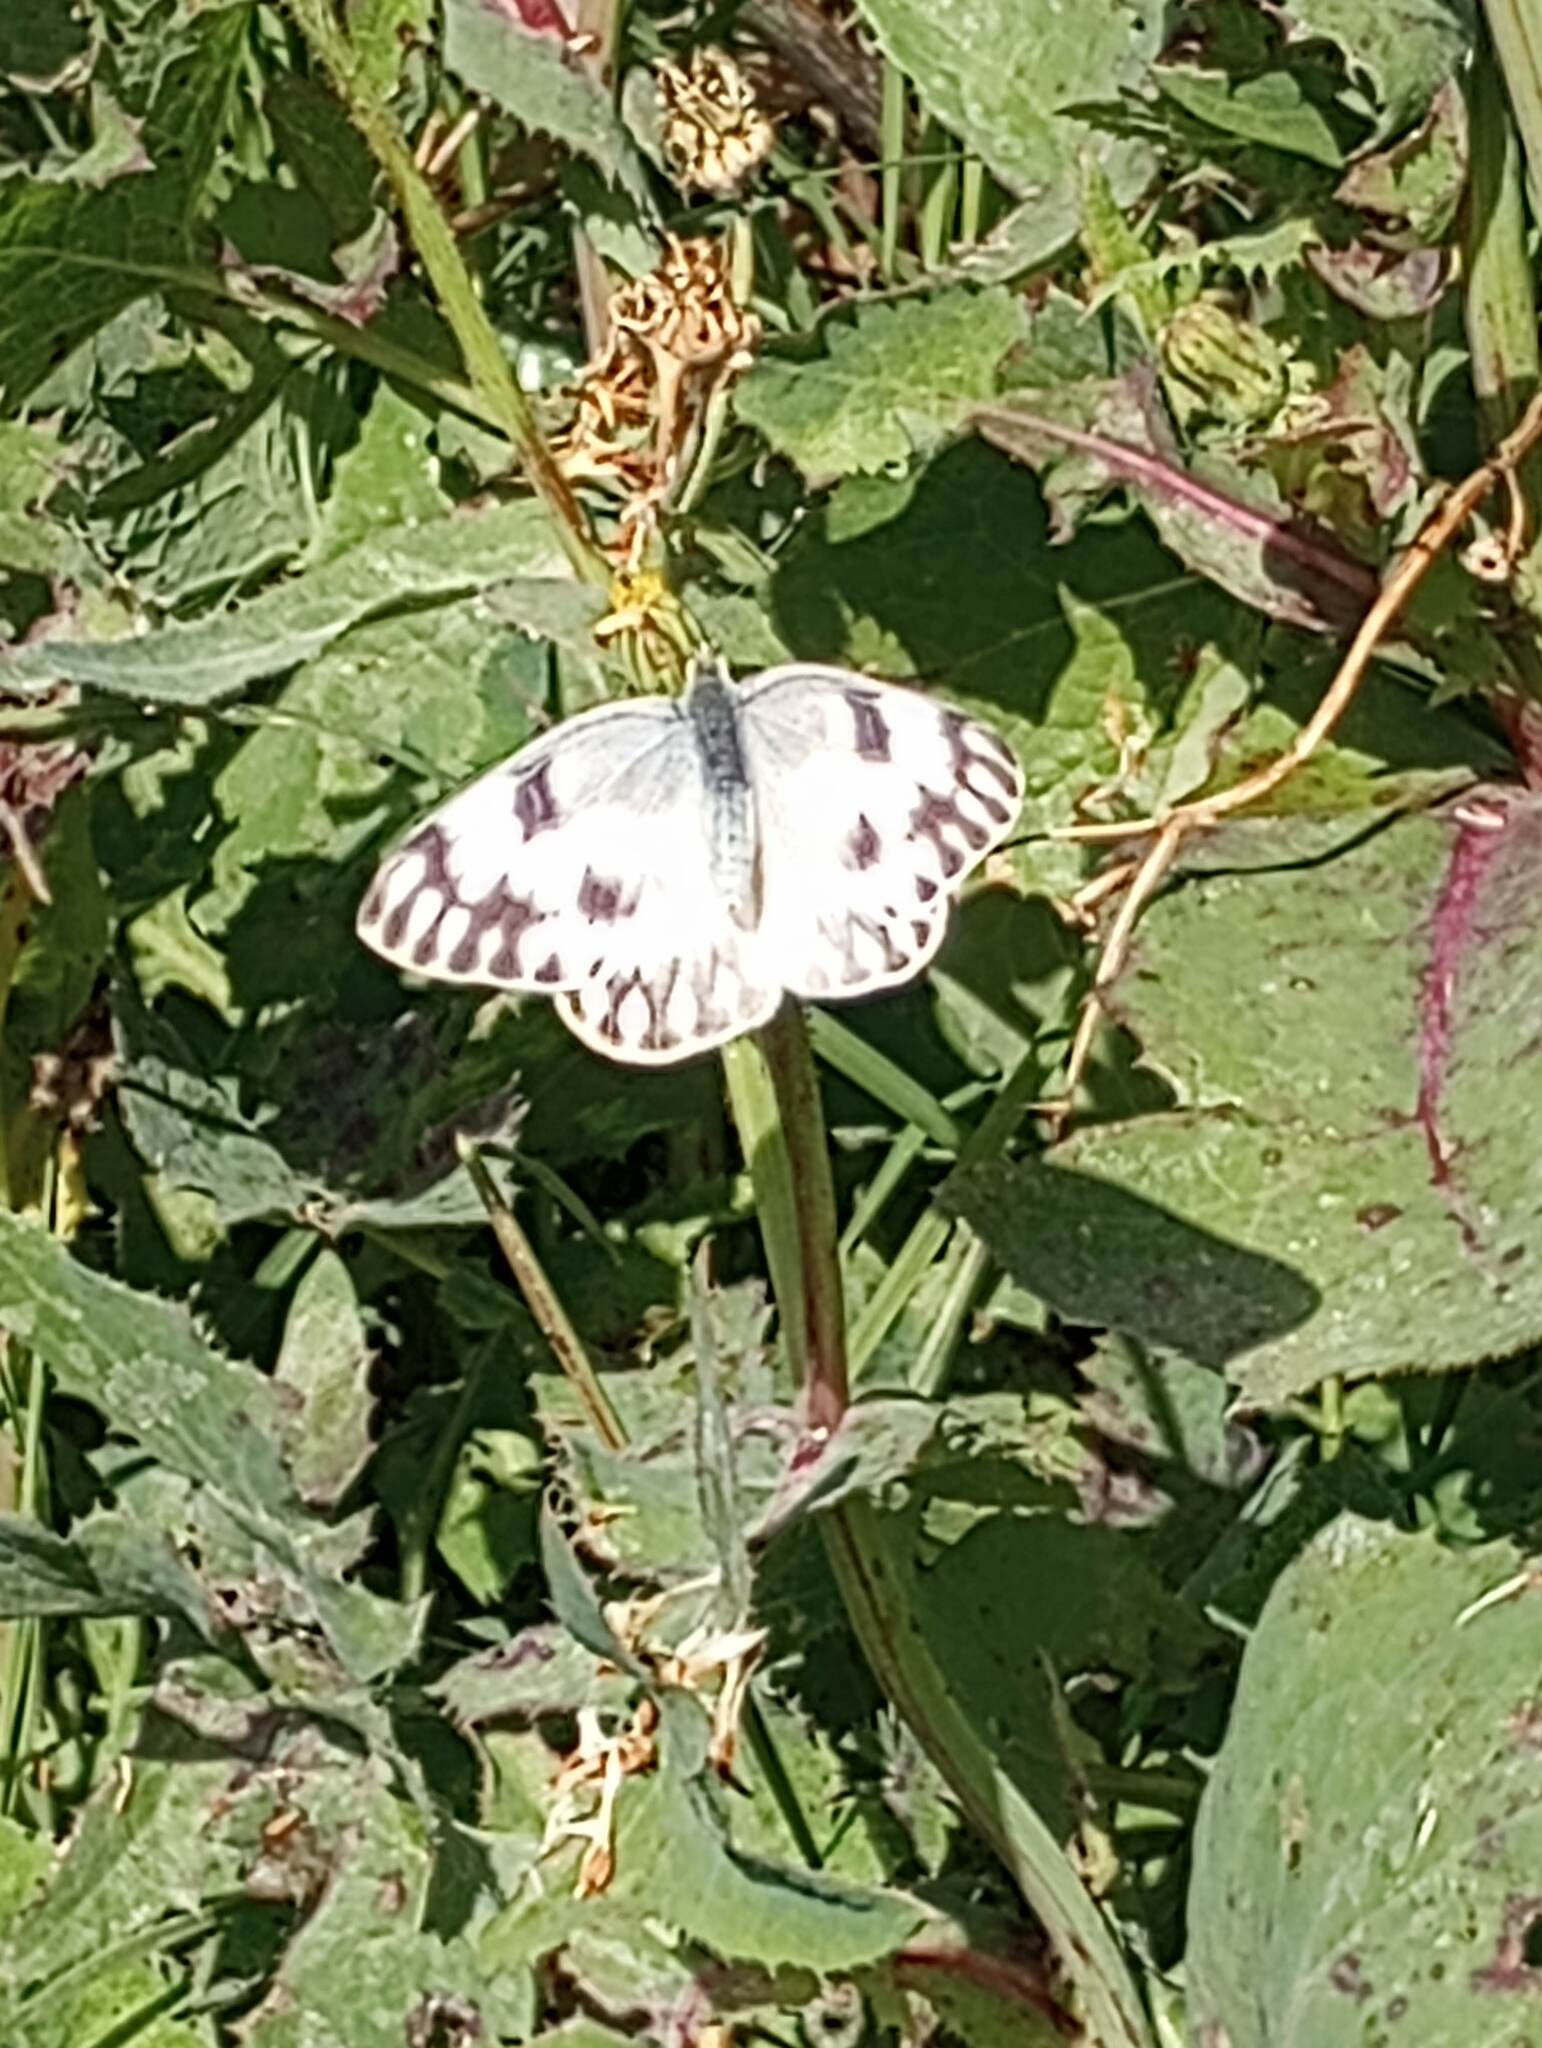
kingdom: Animalia
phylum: Arthropoda
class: Insecta
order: Lepidoptera
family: Pieridae
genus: Pontia
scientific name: Pontia protodice
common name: Checkered white
